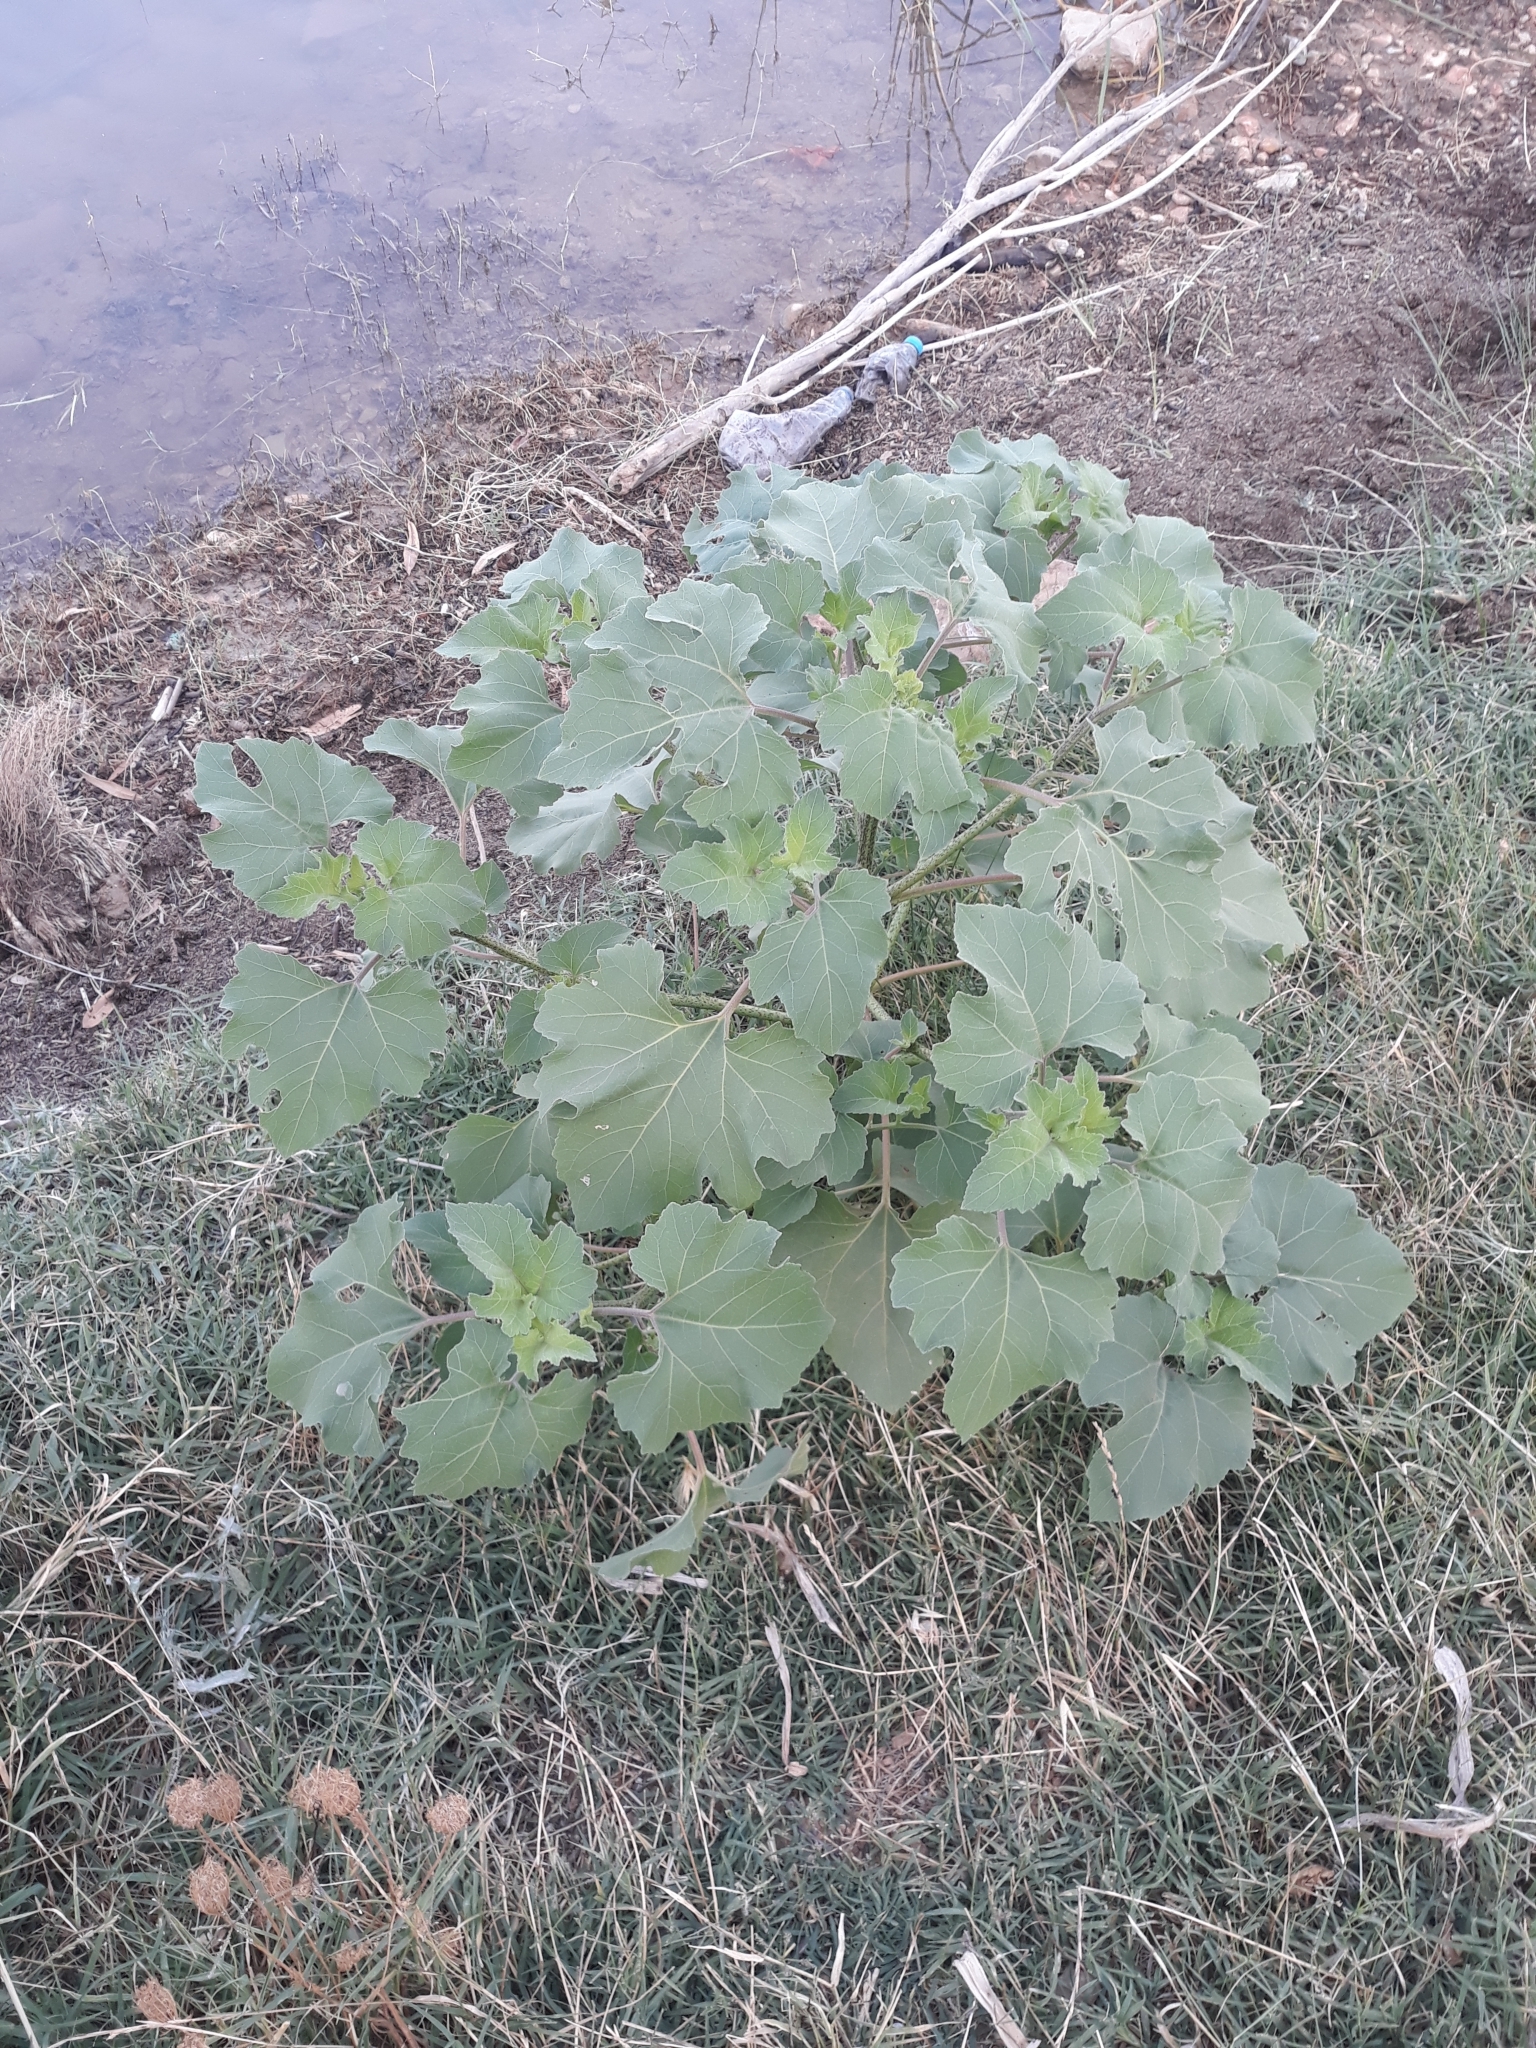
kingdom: Plantae
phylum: Tracheophyta
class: Magnoliopsida
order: Asterales
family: Asteraceae
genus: Xanthium
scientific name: Xanthium strumarium
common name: Rough cocklebur
